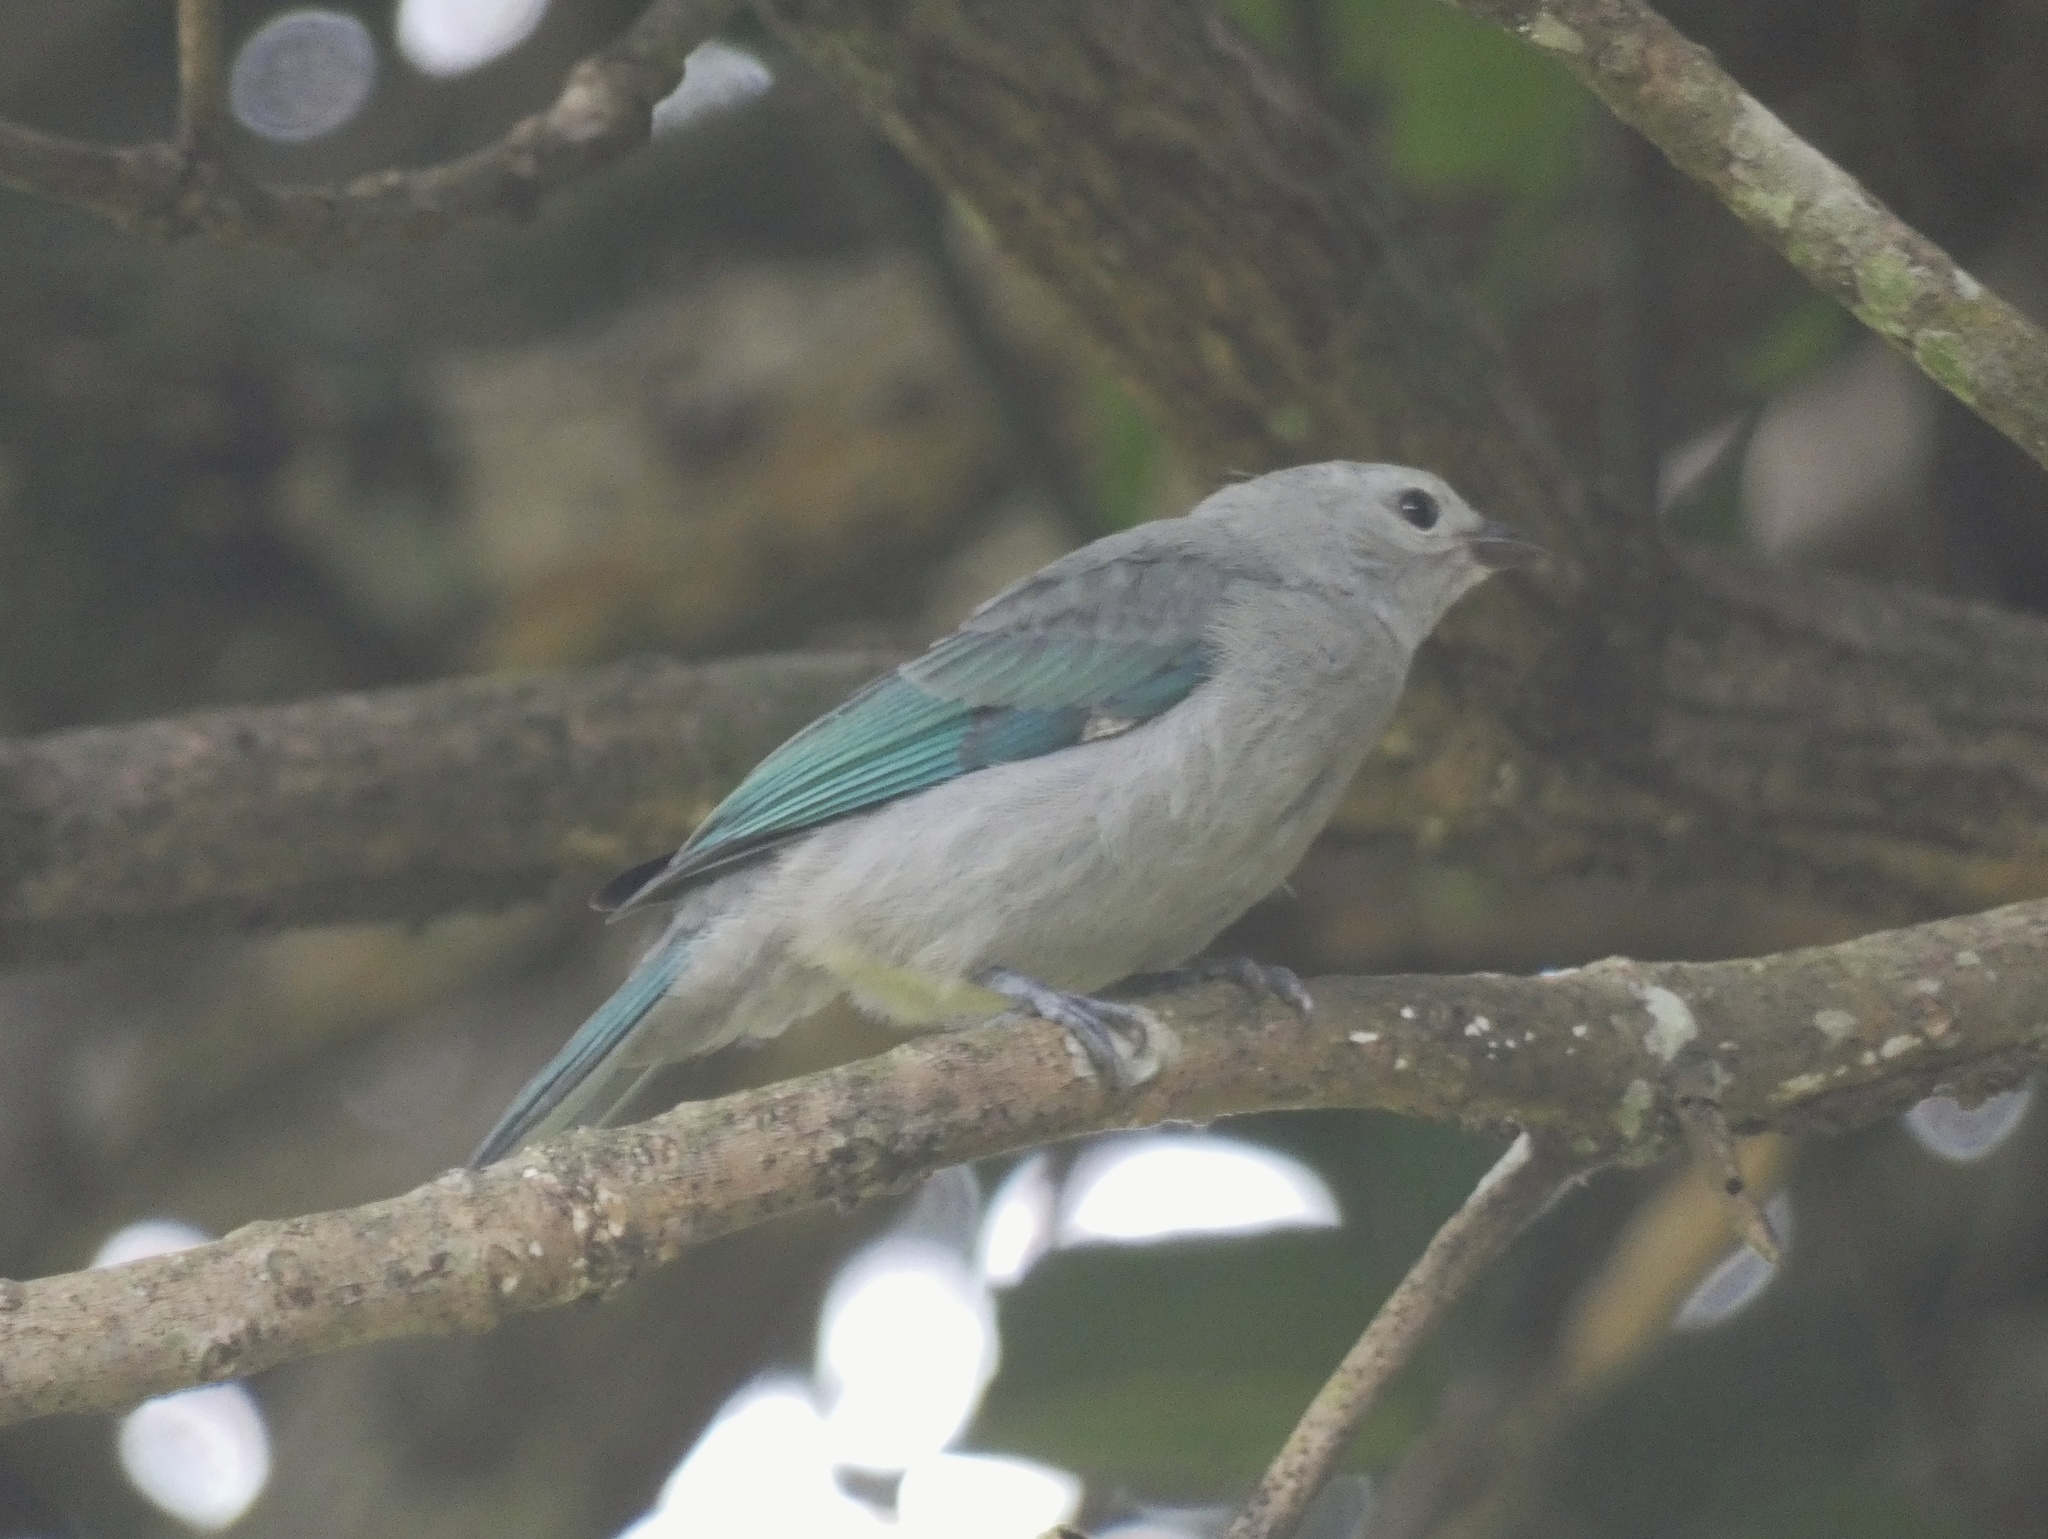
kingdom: Animalia
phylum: Chordata
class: Aves
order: Passeriformes
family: Thraupidae
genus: Thraupis
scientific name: Thraupis episcopus
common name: Blue-grey tanager
